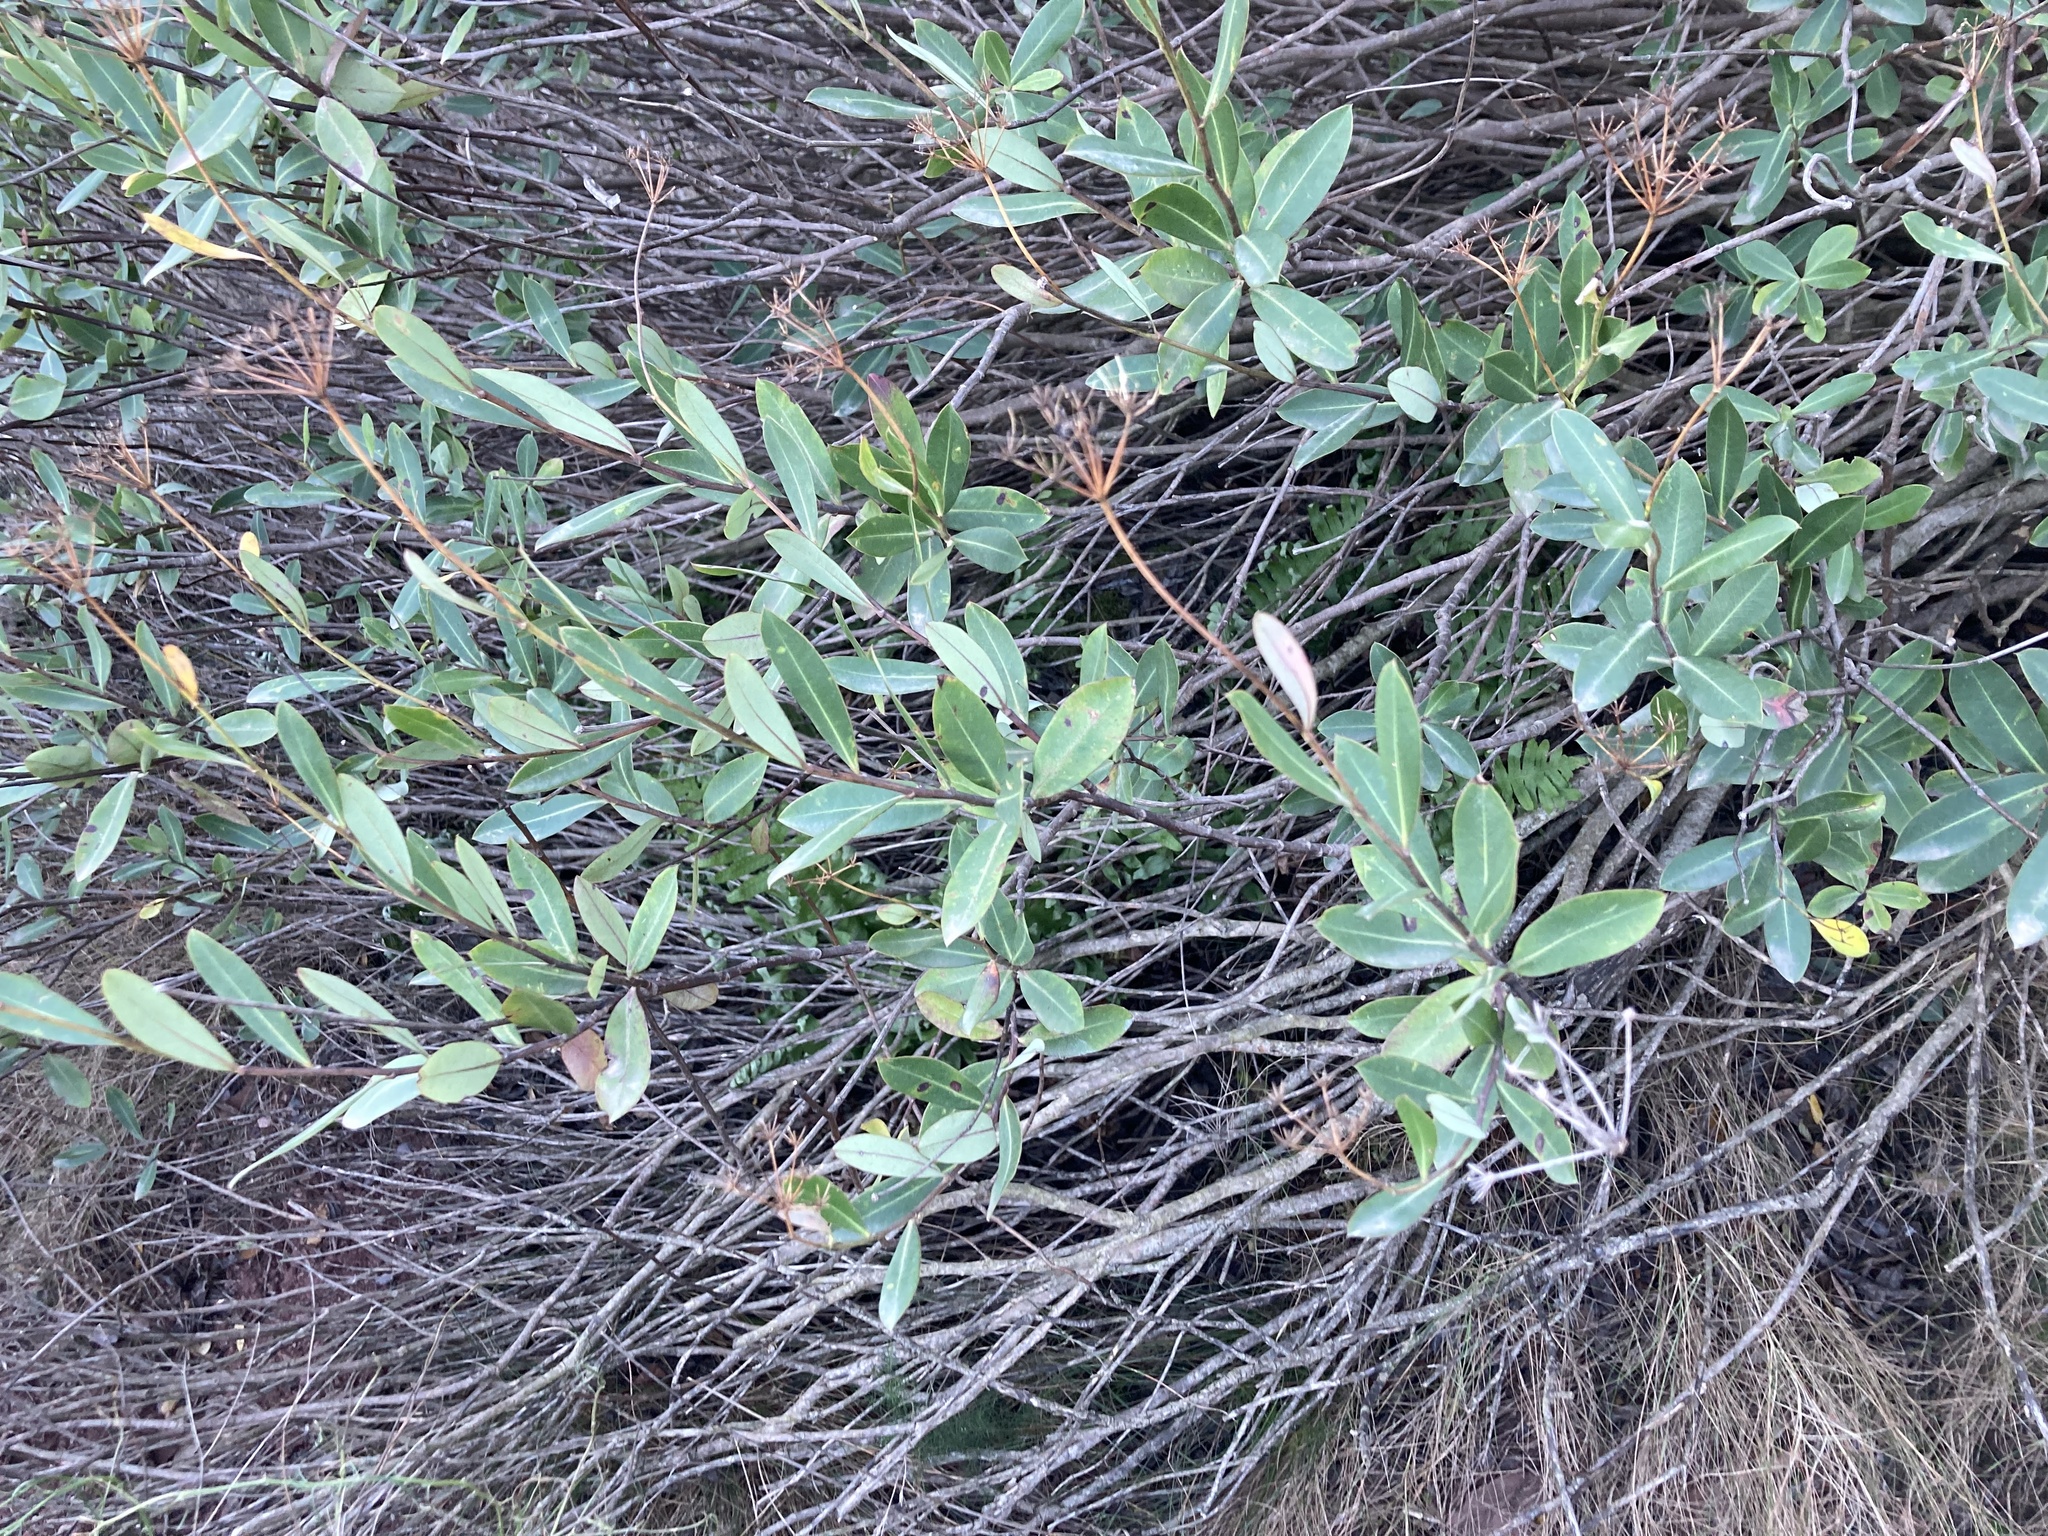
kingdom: Plantae
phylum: Tracheophyta
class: Magnoliopsida
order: Apiales
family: Apiaceae
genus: Bupleurum
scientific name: Bupleurum fruticosum
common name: Shrubby hare's-ear
